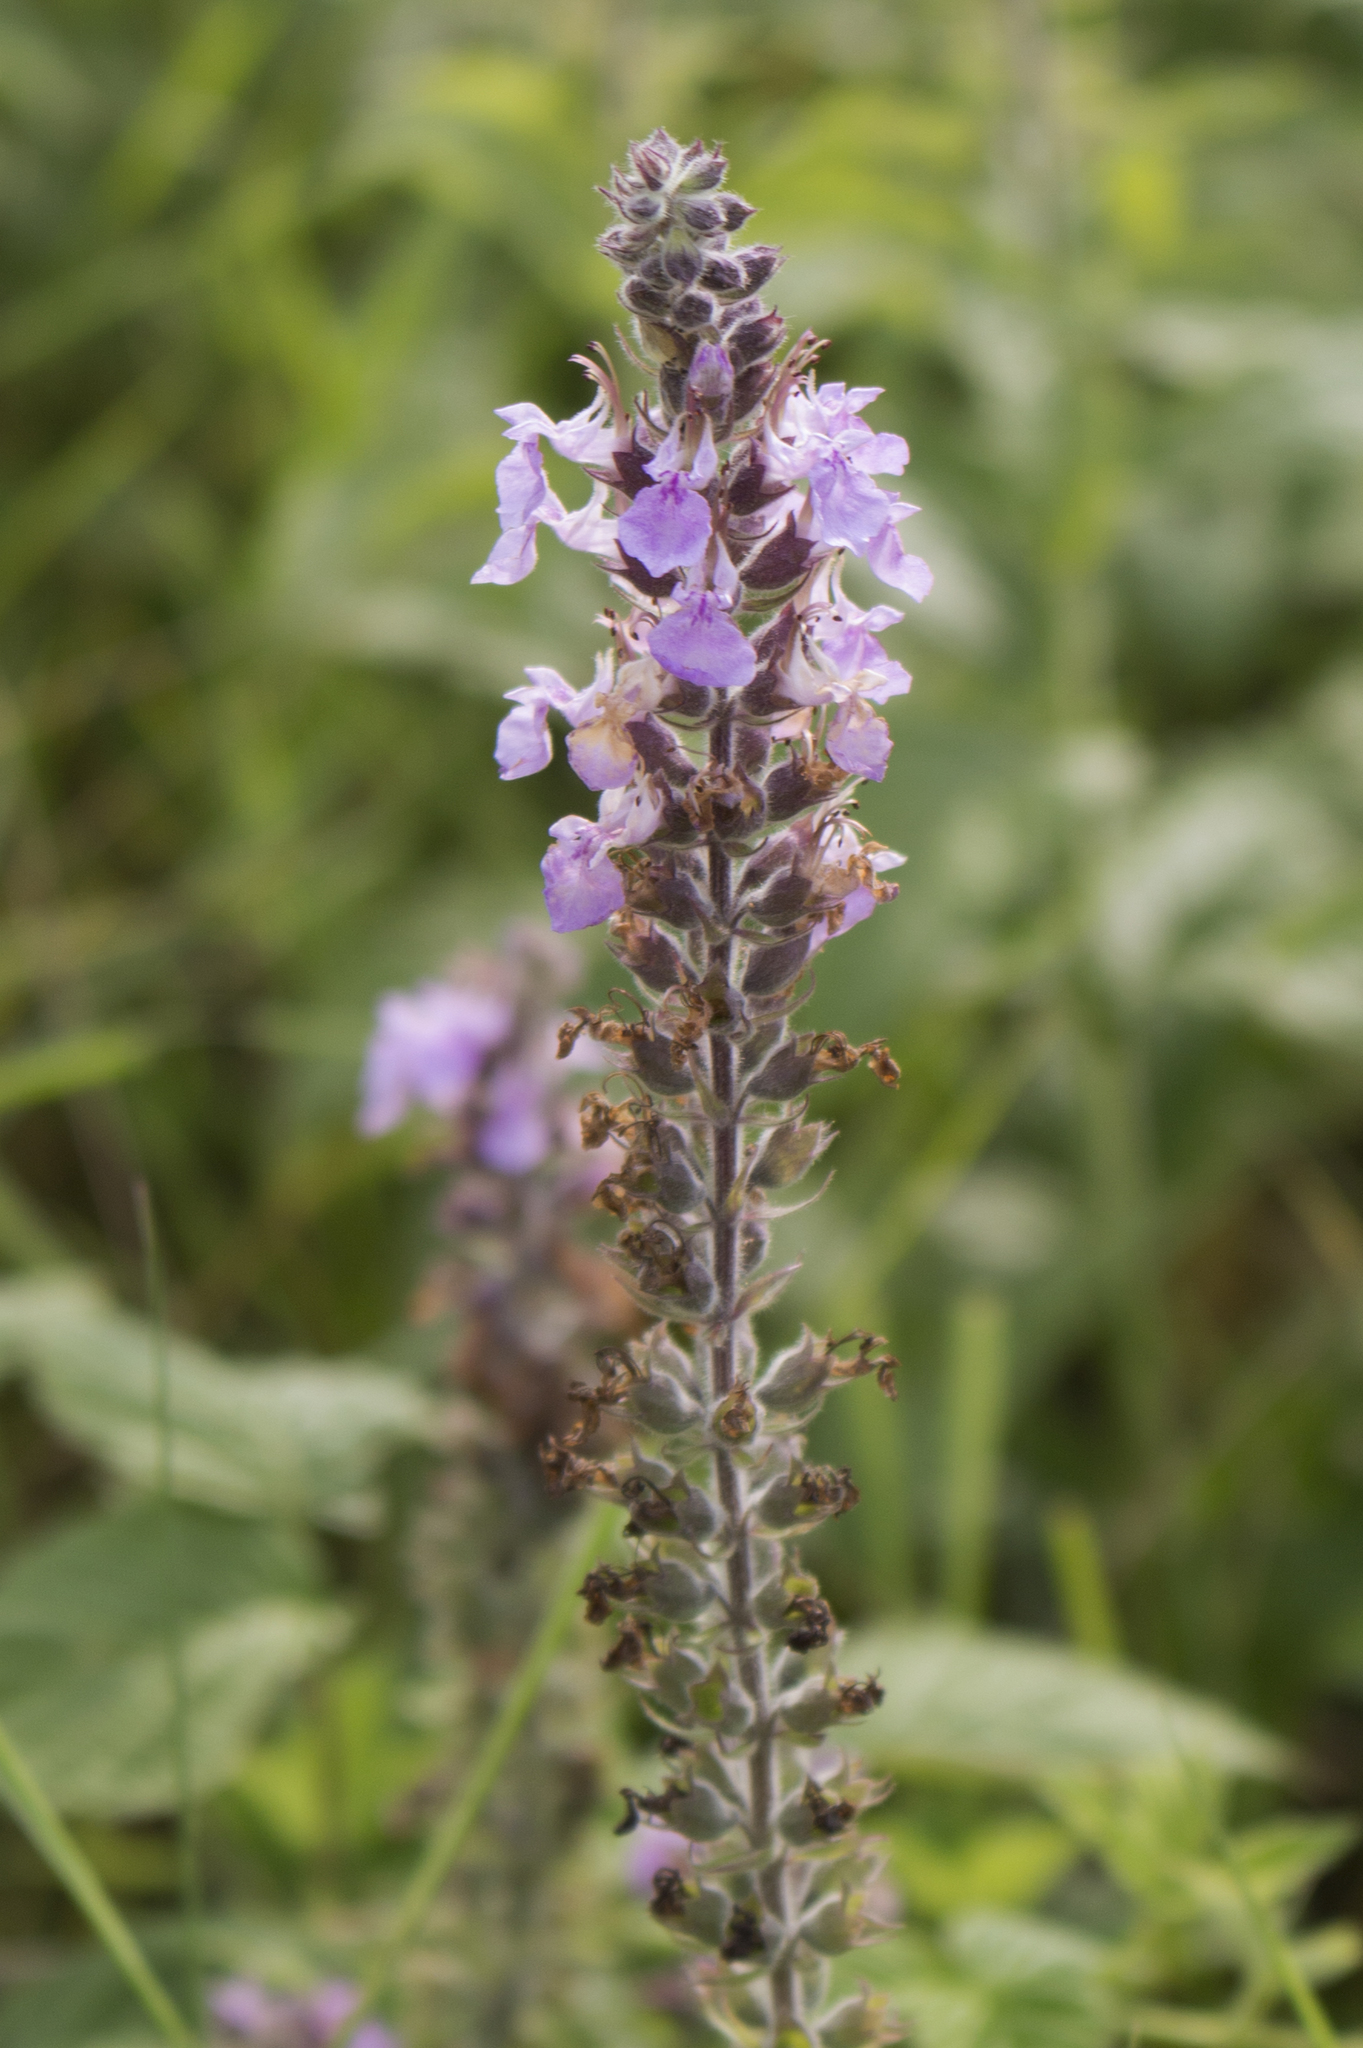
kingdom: Plantae
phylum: Tracheophyta
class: Magnoliopsida
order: Lamiales
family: Lamiaceae
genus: Teucrium
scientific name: Teucrium canadense
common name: American germander
